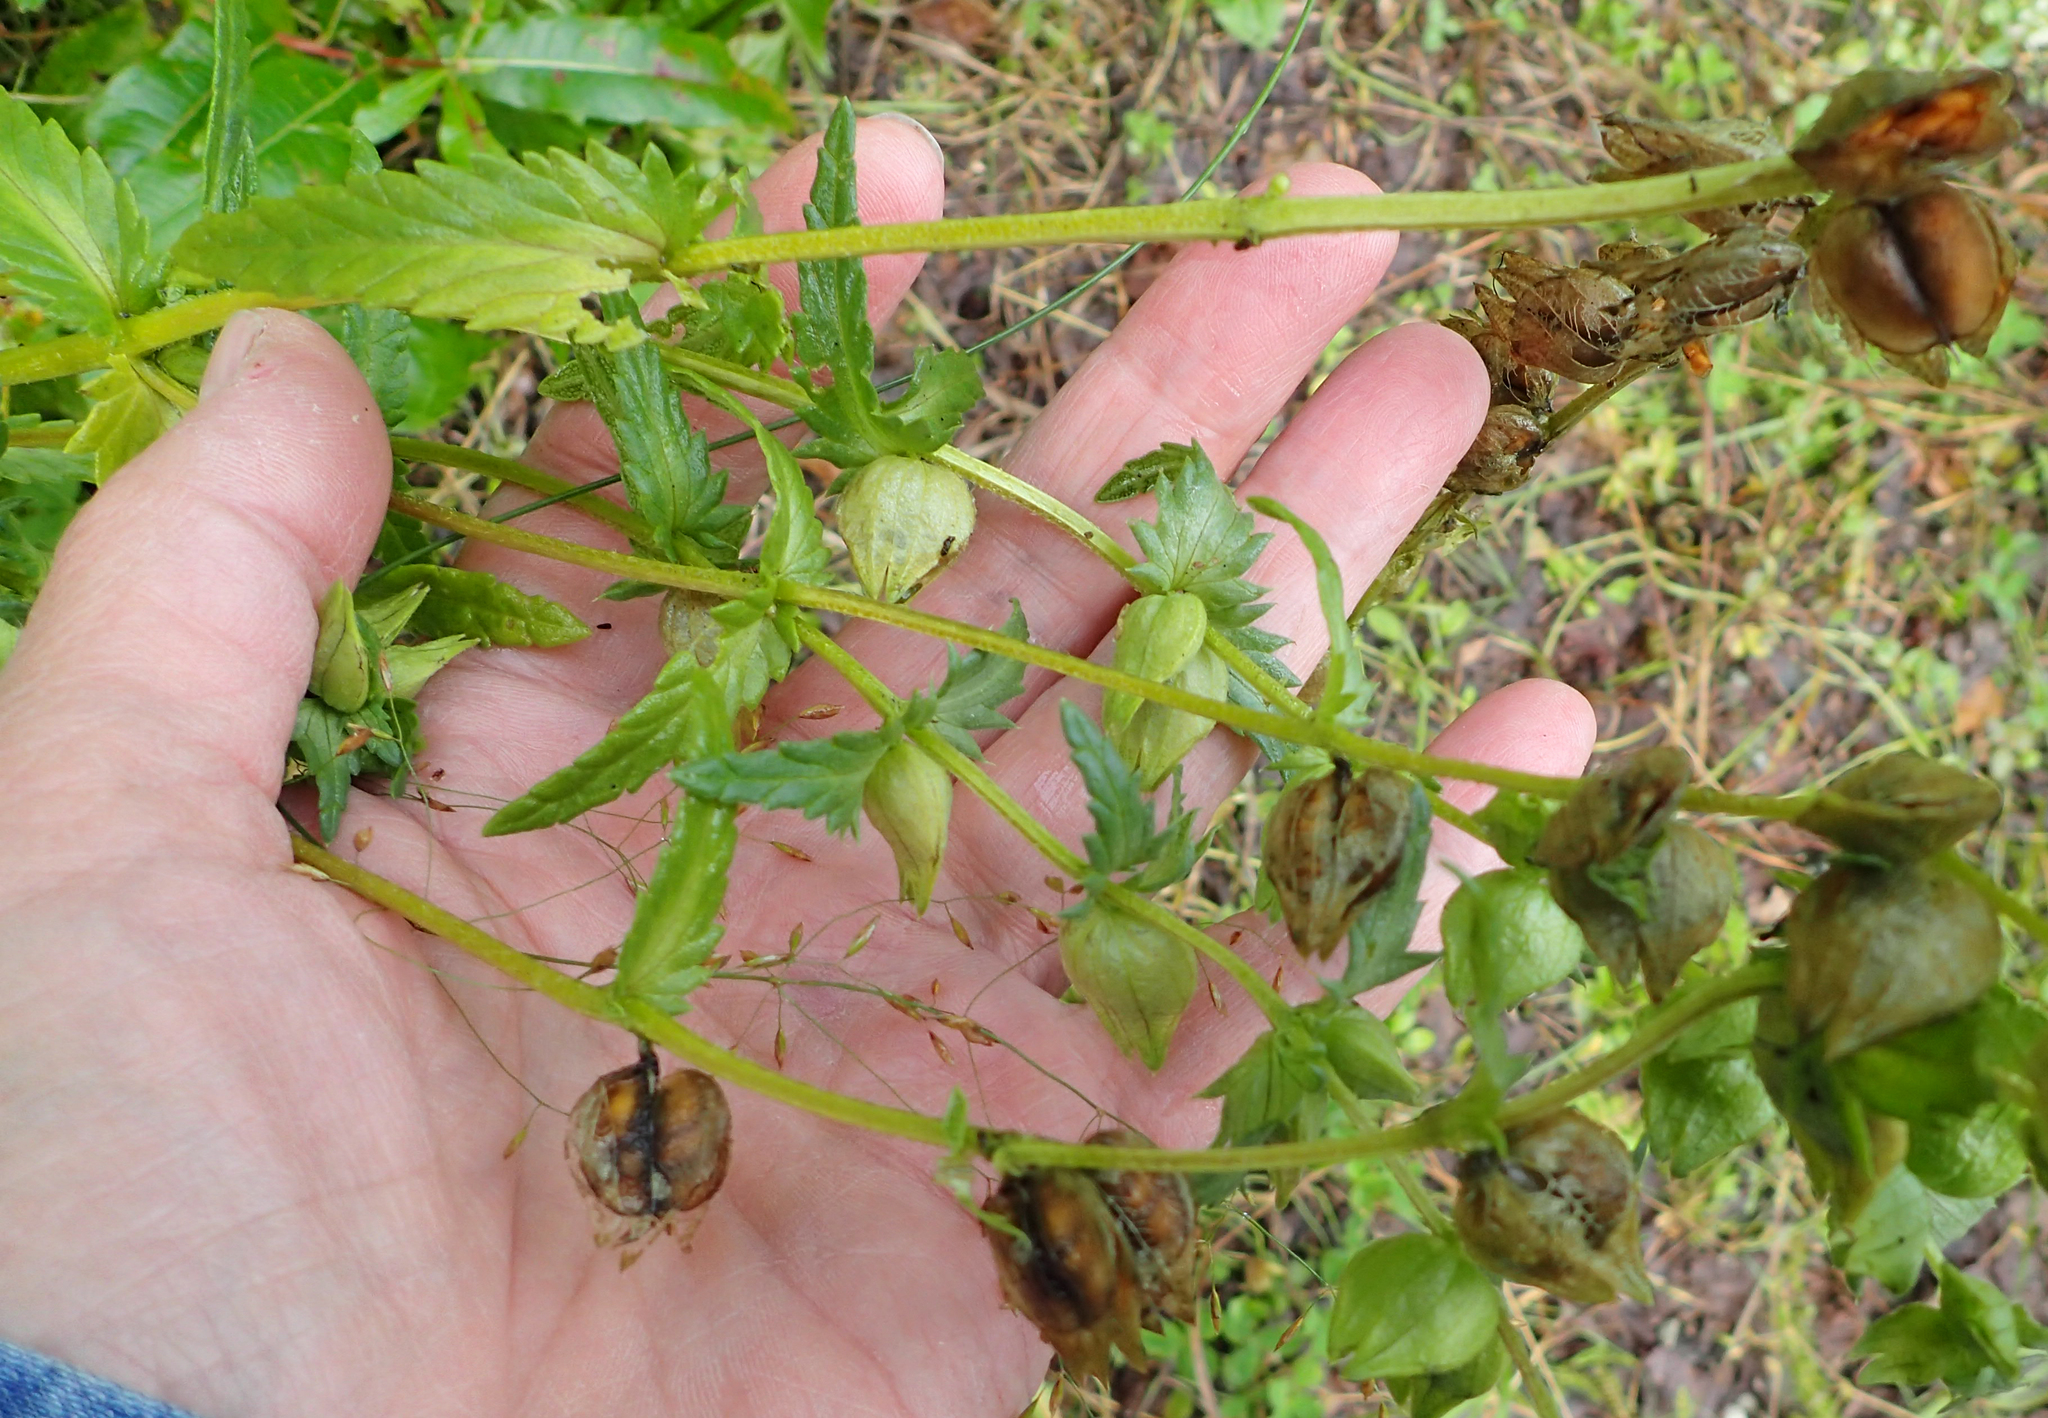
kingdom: Plantae
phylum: Tracheophyta
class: Magnoliopsida
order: Lamiales
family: Orobanchaceae
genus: Rhinanthus
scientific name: Rhinanthus minor
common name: Yellow-rattle
